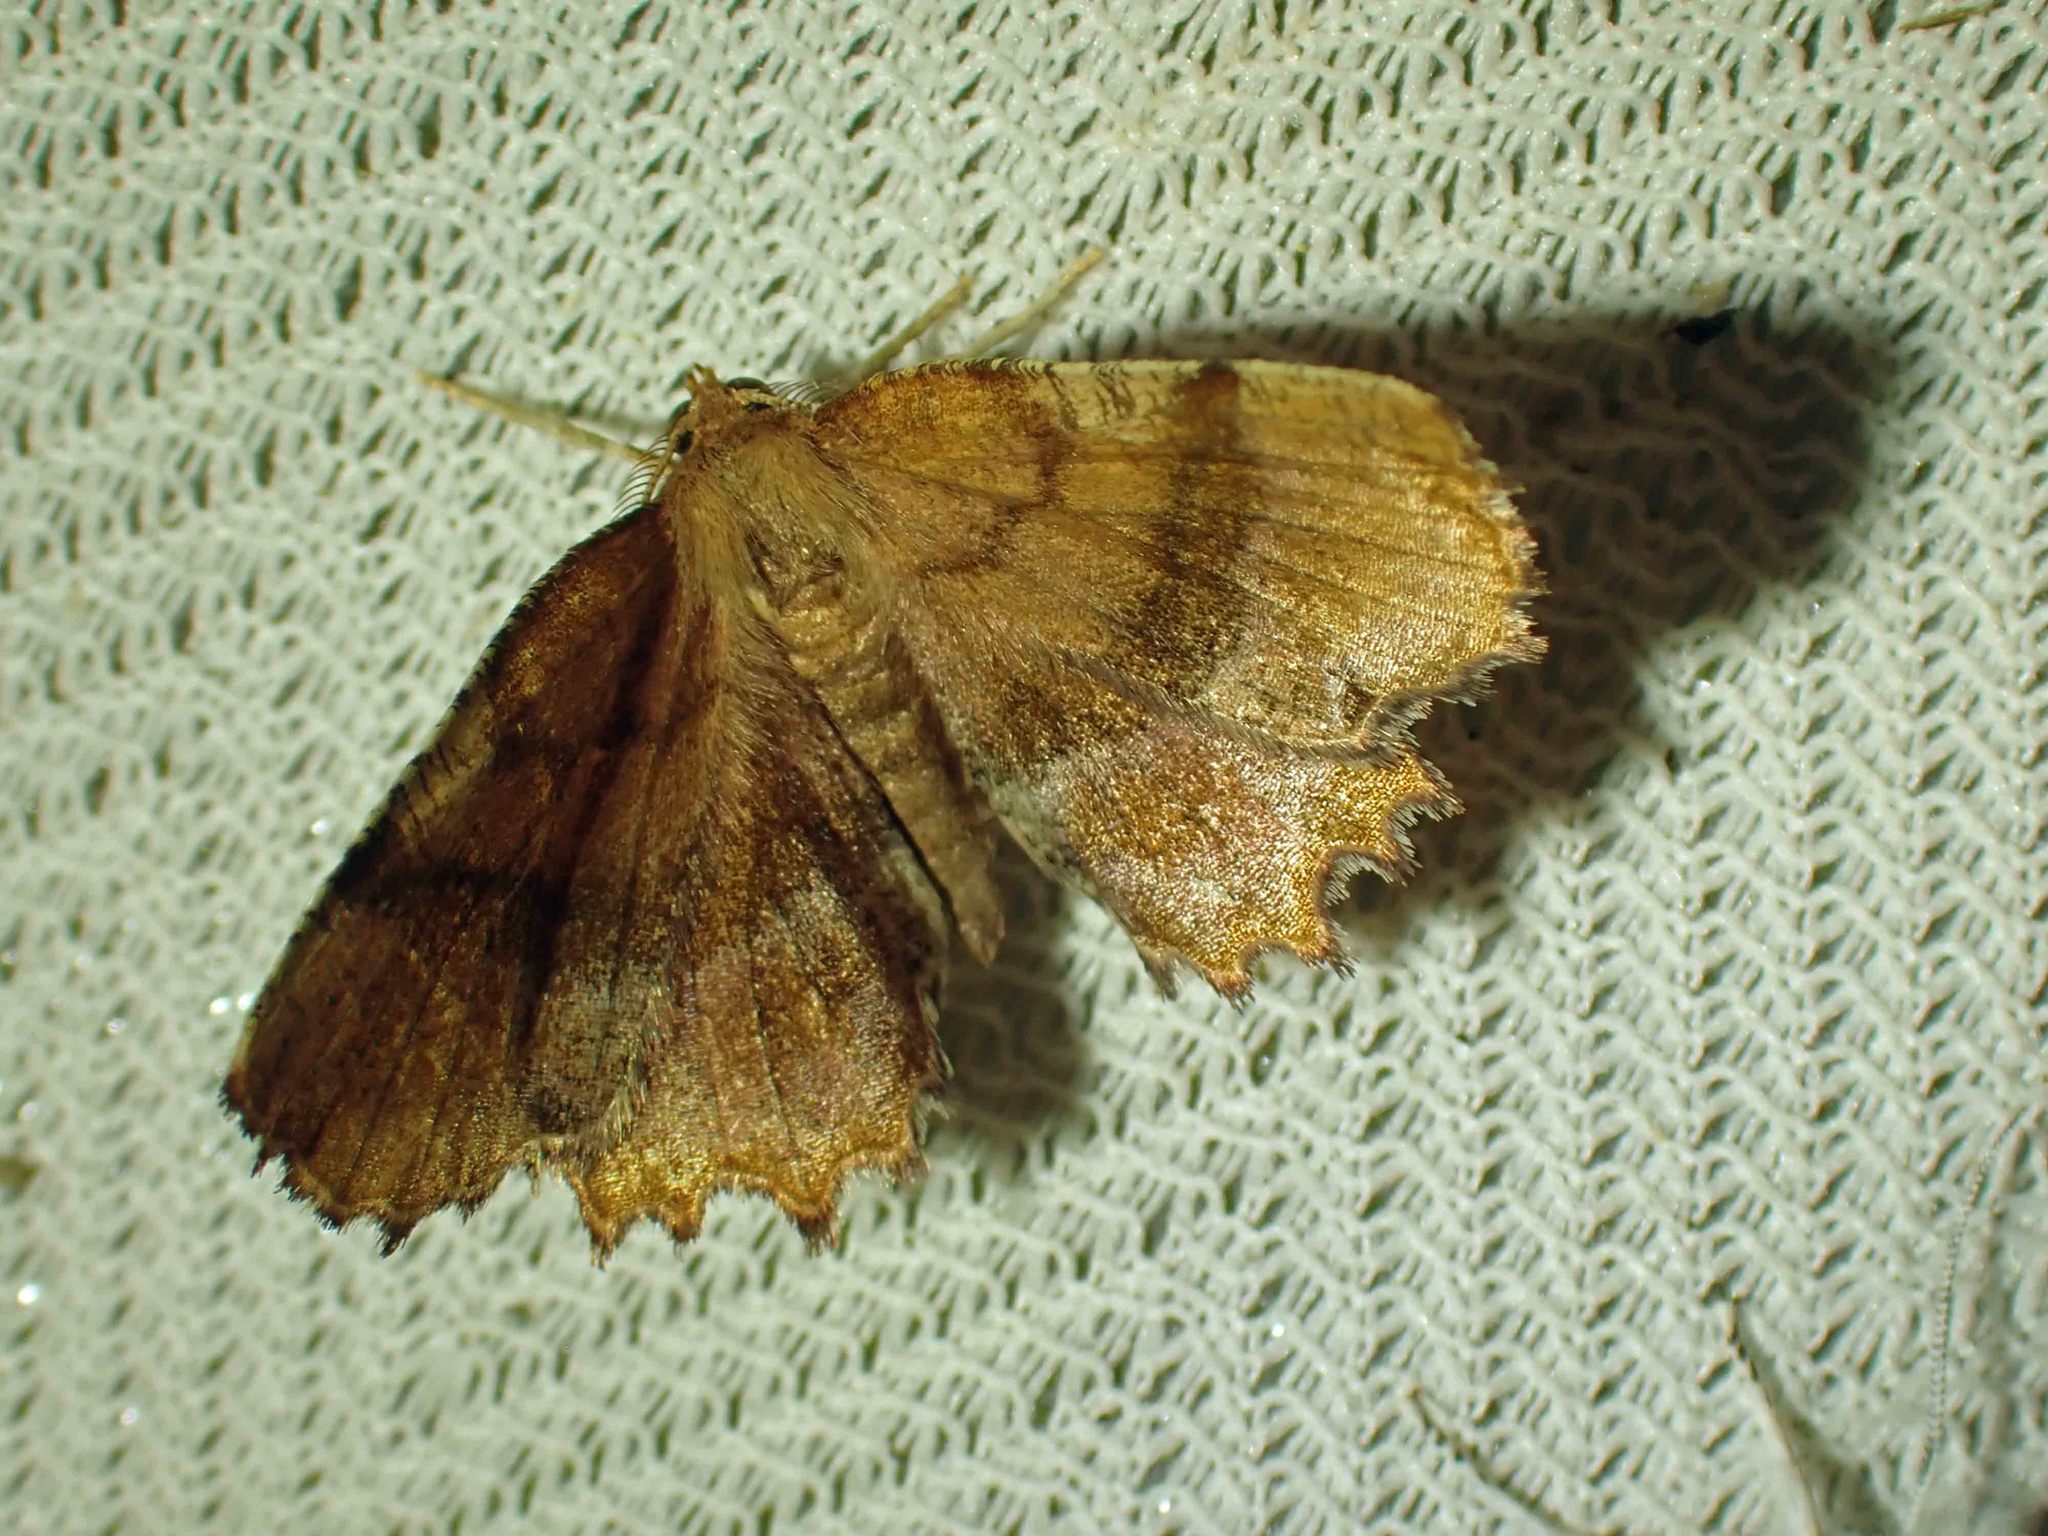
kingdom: Animalia
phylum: Arthropoda
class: Insecta
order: Lepidoptera
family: Geometridae
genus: Cepphis
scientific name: Cepphis armataria
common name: Scallop moth
